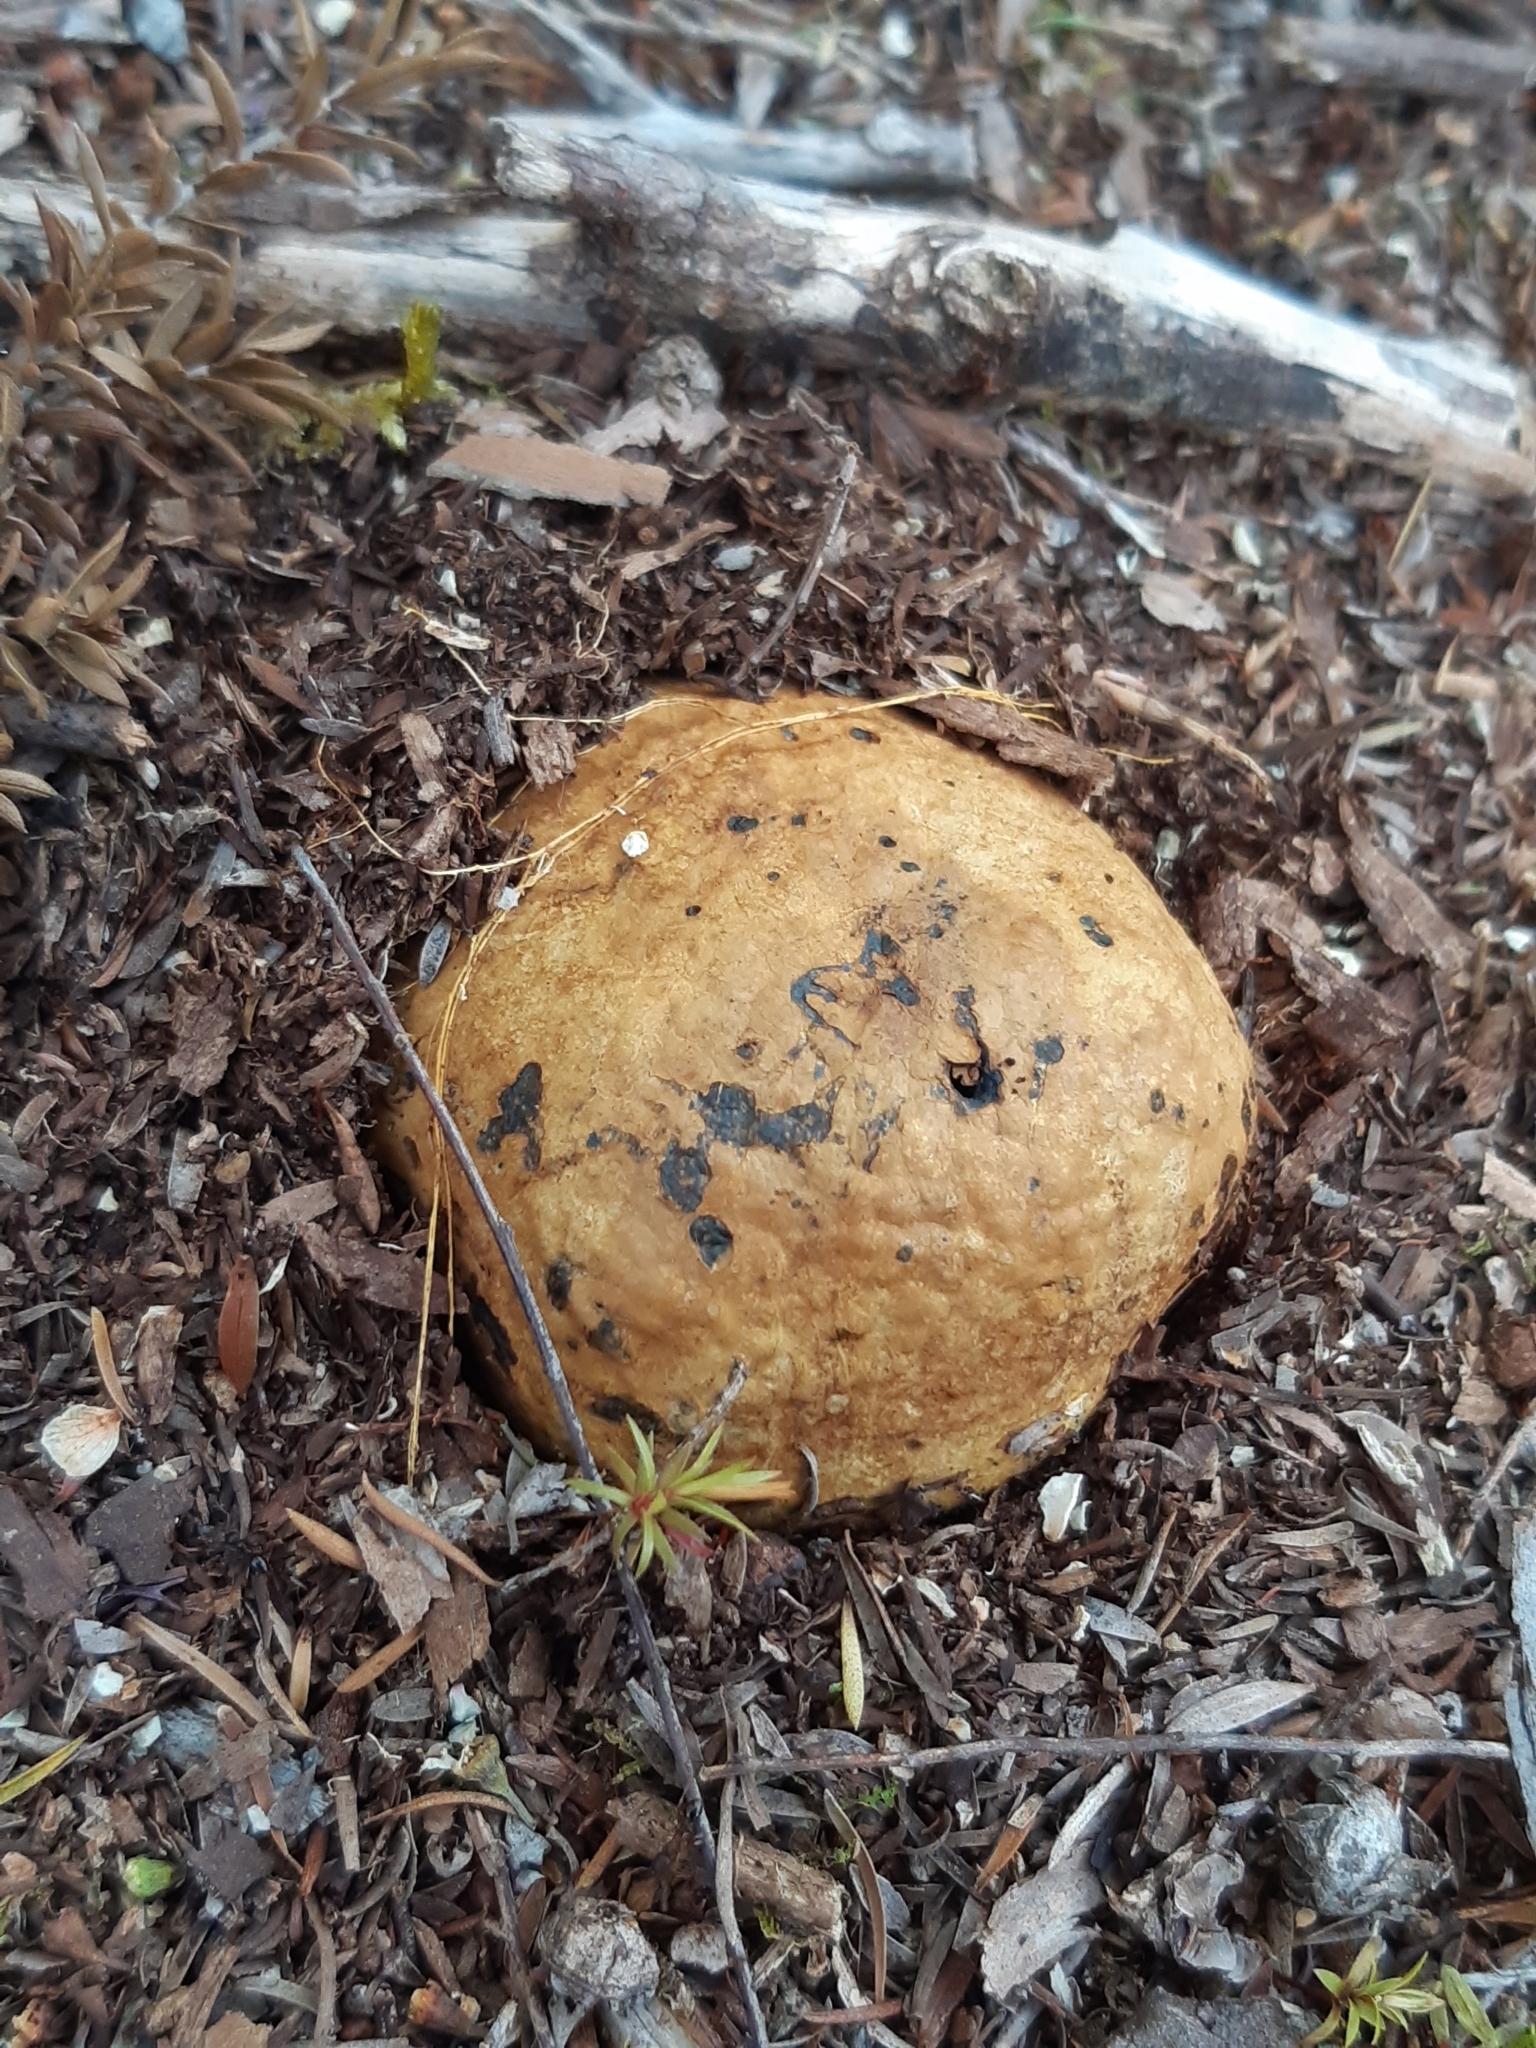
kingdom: Fungi
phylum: Basidiomycota
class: Agaricomycetes
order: Boletales
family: Sclerodermataceae
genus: Pisolithus
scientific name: Pisolithus thermaeus
